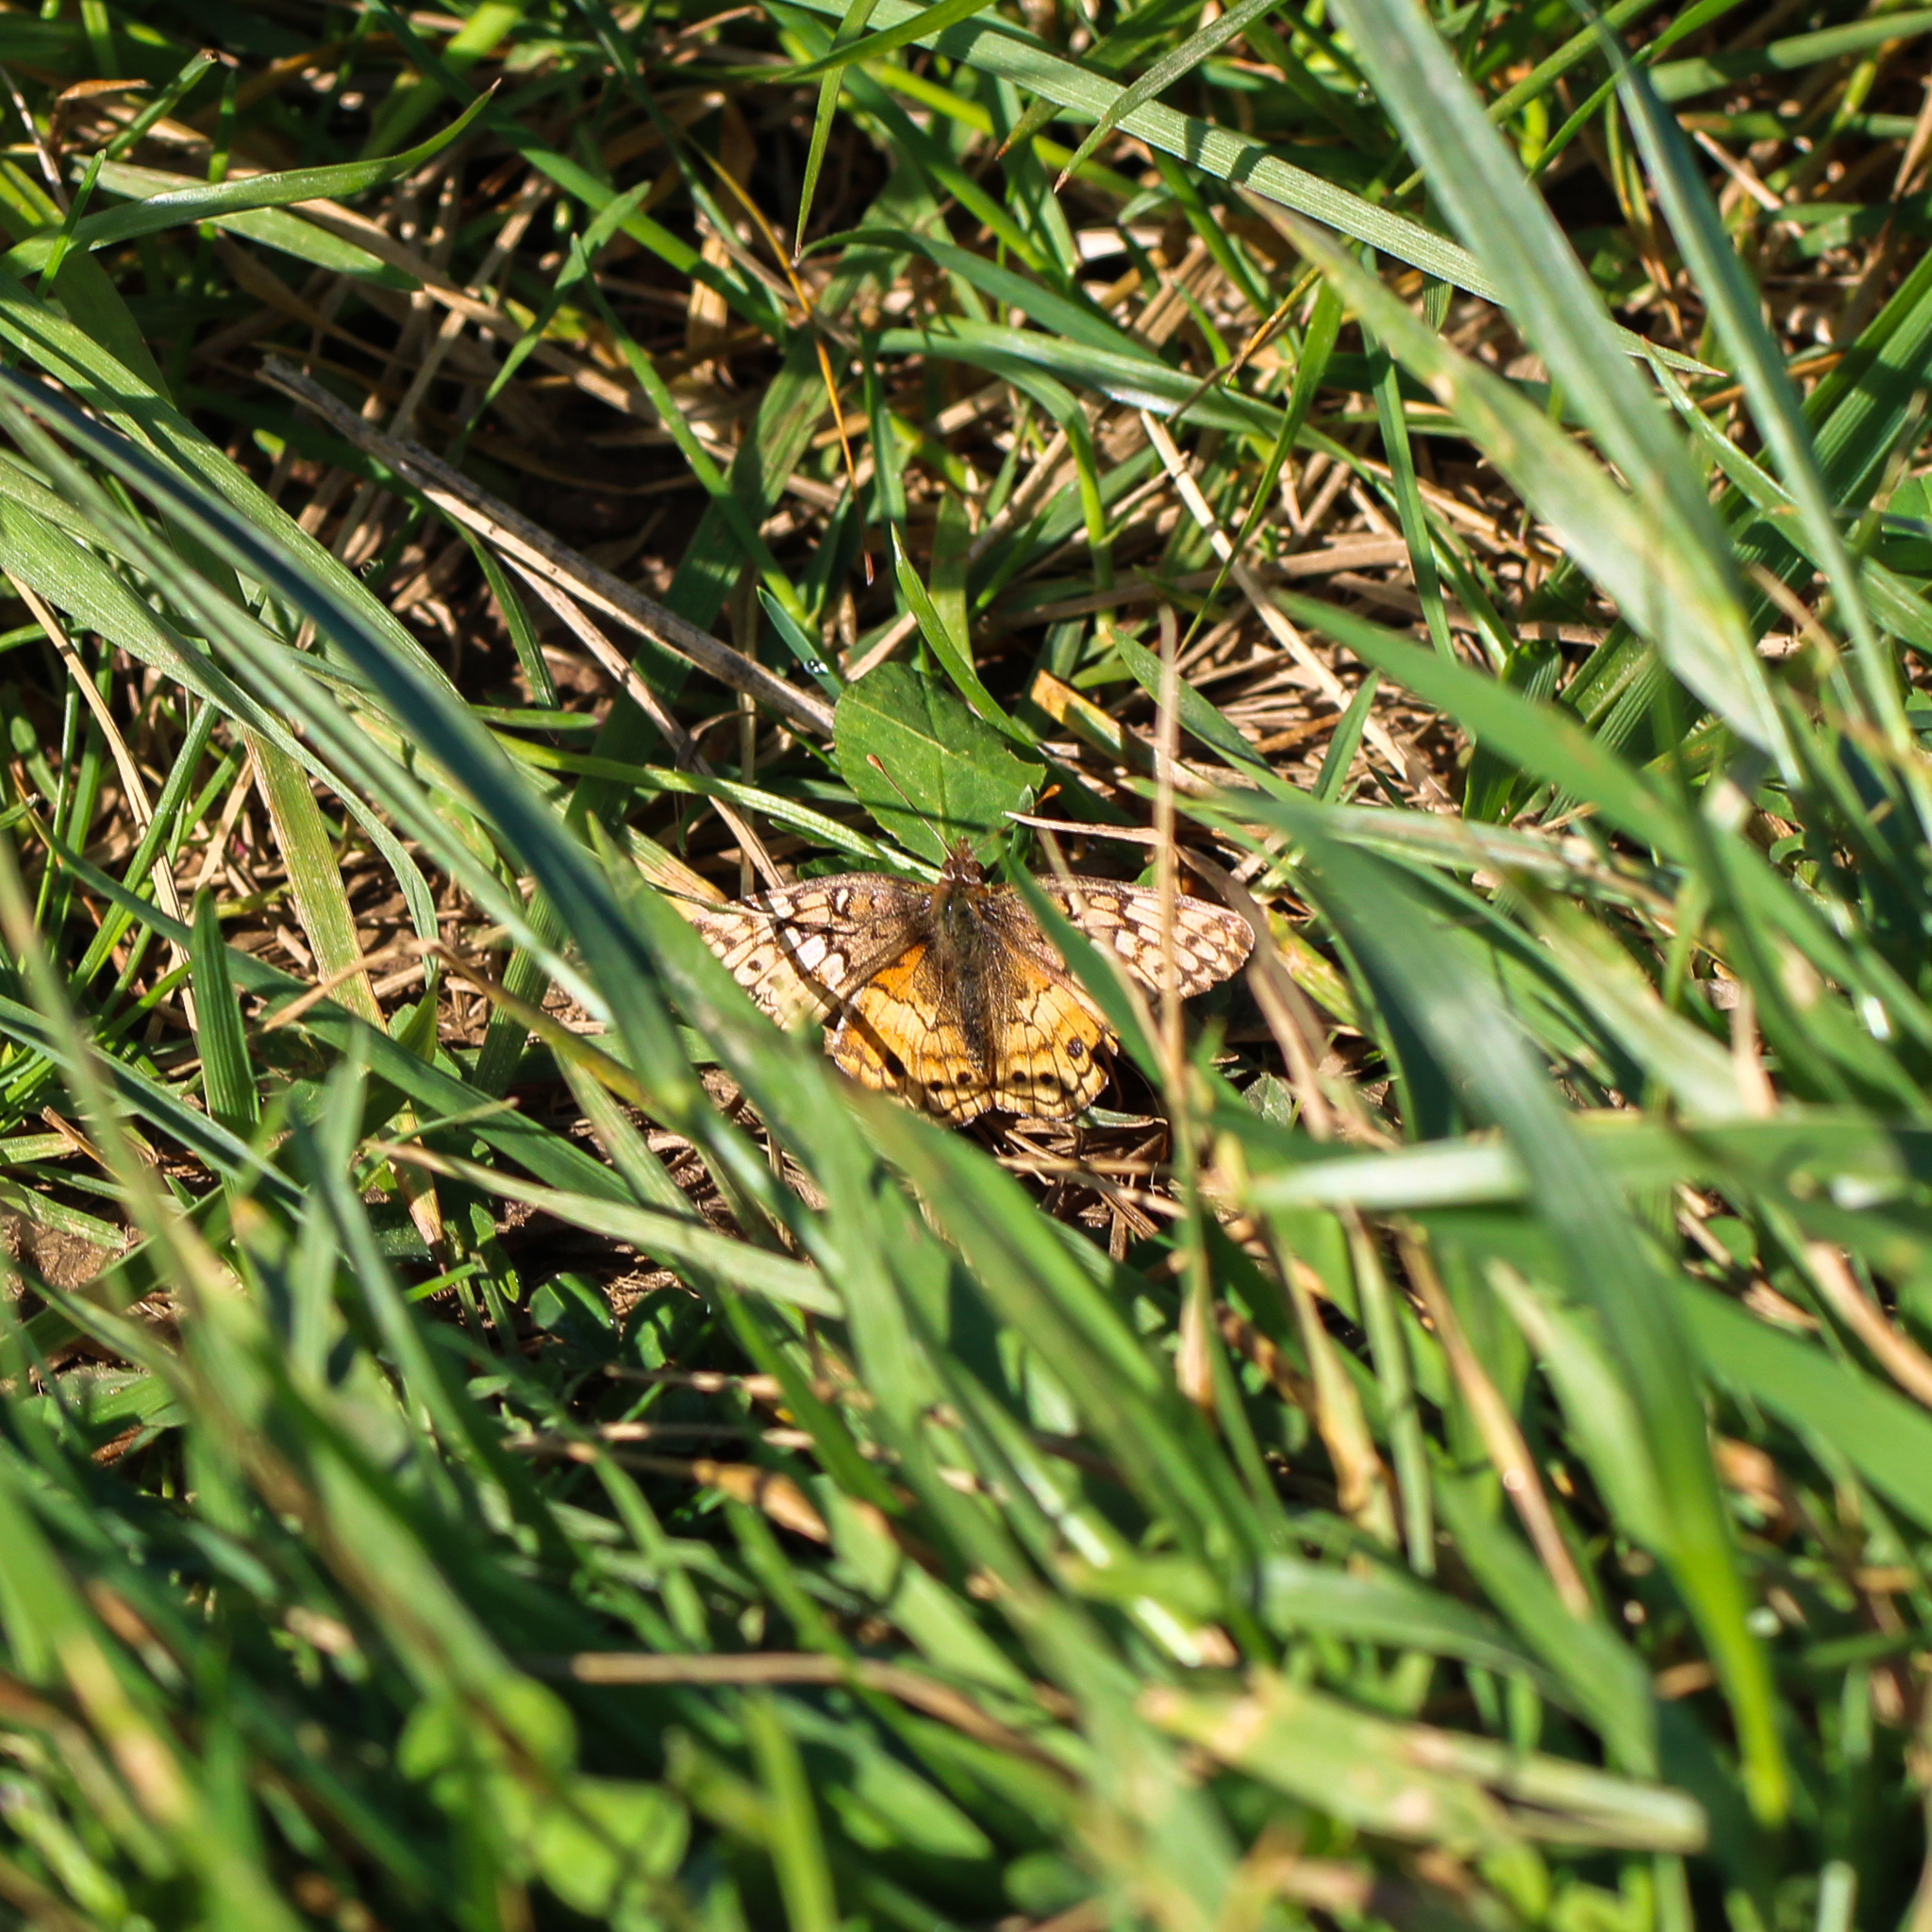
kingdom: Animalia
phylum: Arthropoda
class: Insecta
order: Lepidoptera
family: Nymphalidae
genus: Euptoieta
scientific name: Euptoieta claudia
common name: Variegated fritillary
